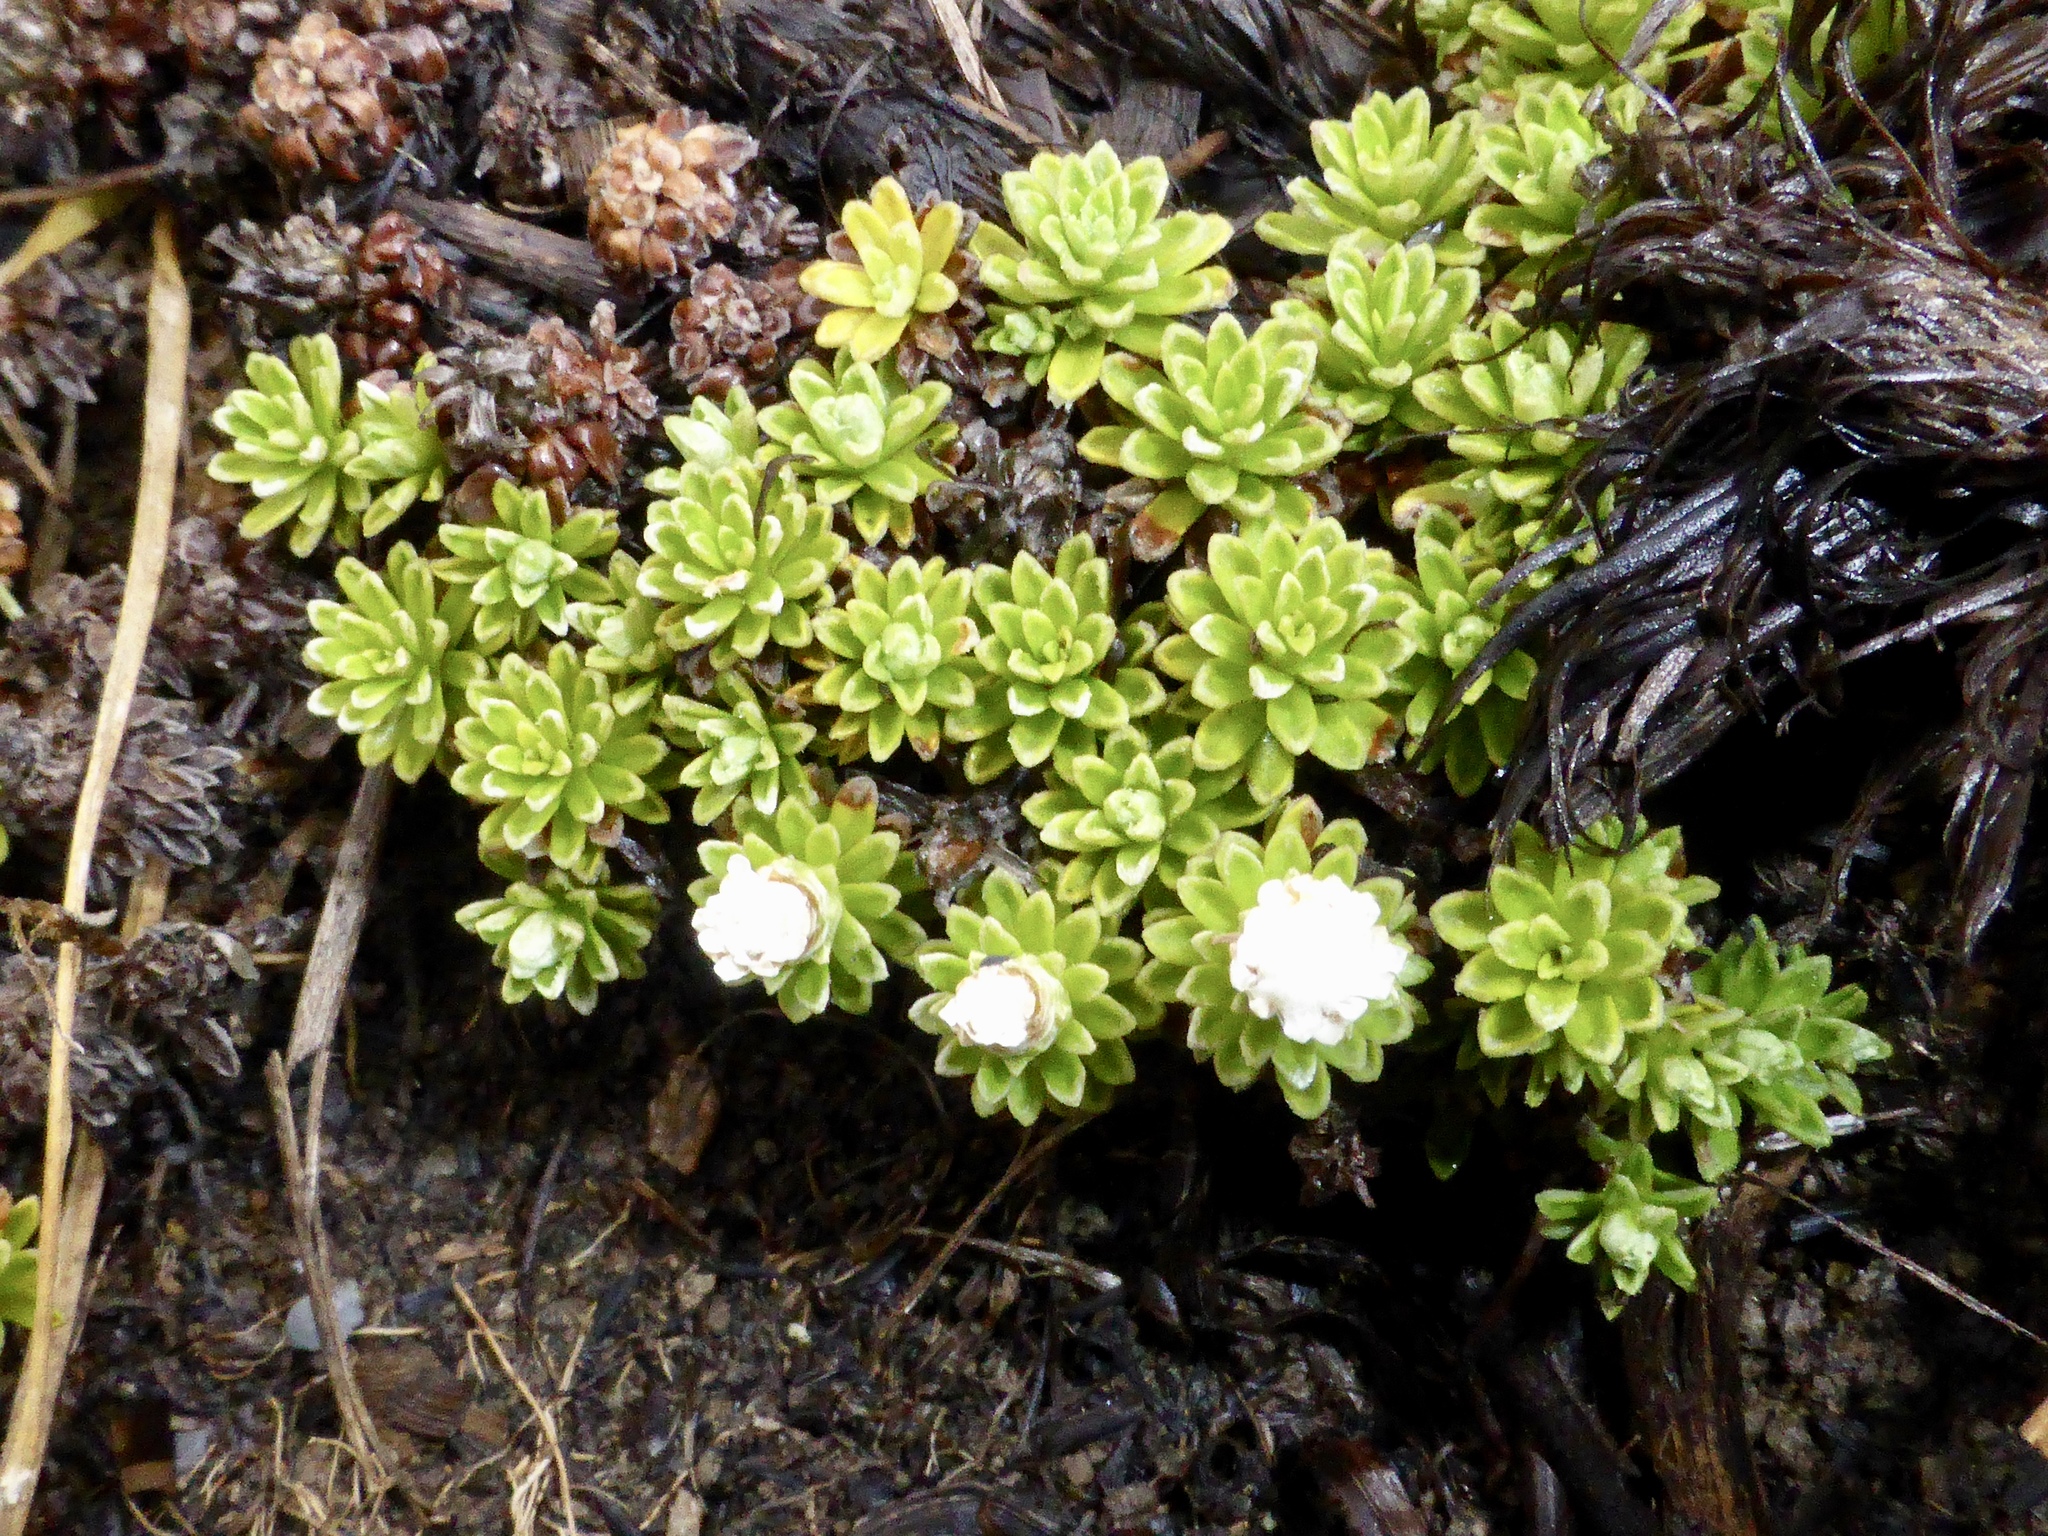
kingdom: Plantae
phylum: Tracheophyta
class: Magnoliopsida
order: Asterales
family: Asteraceae
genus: Raoulia
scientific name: Raoulia subsericea
